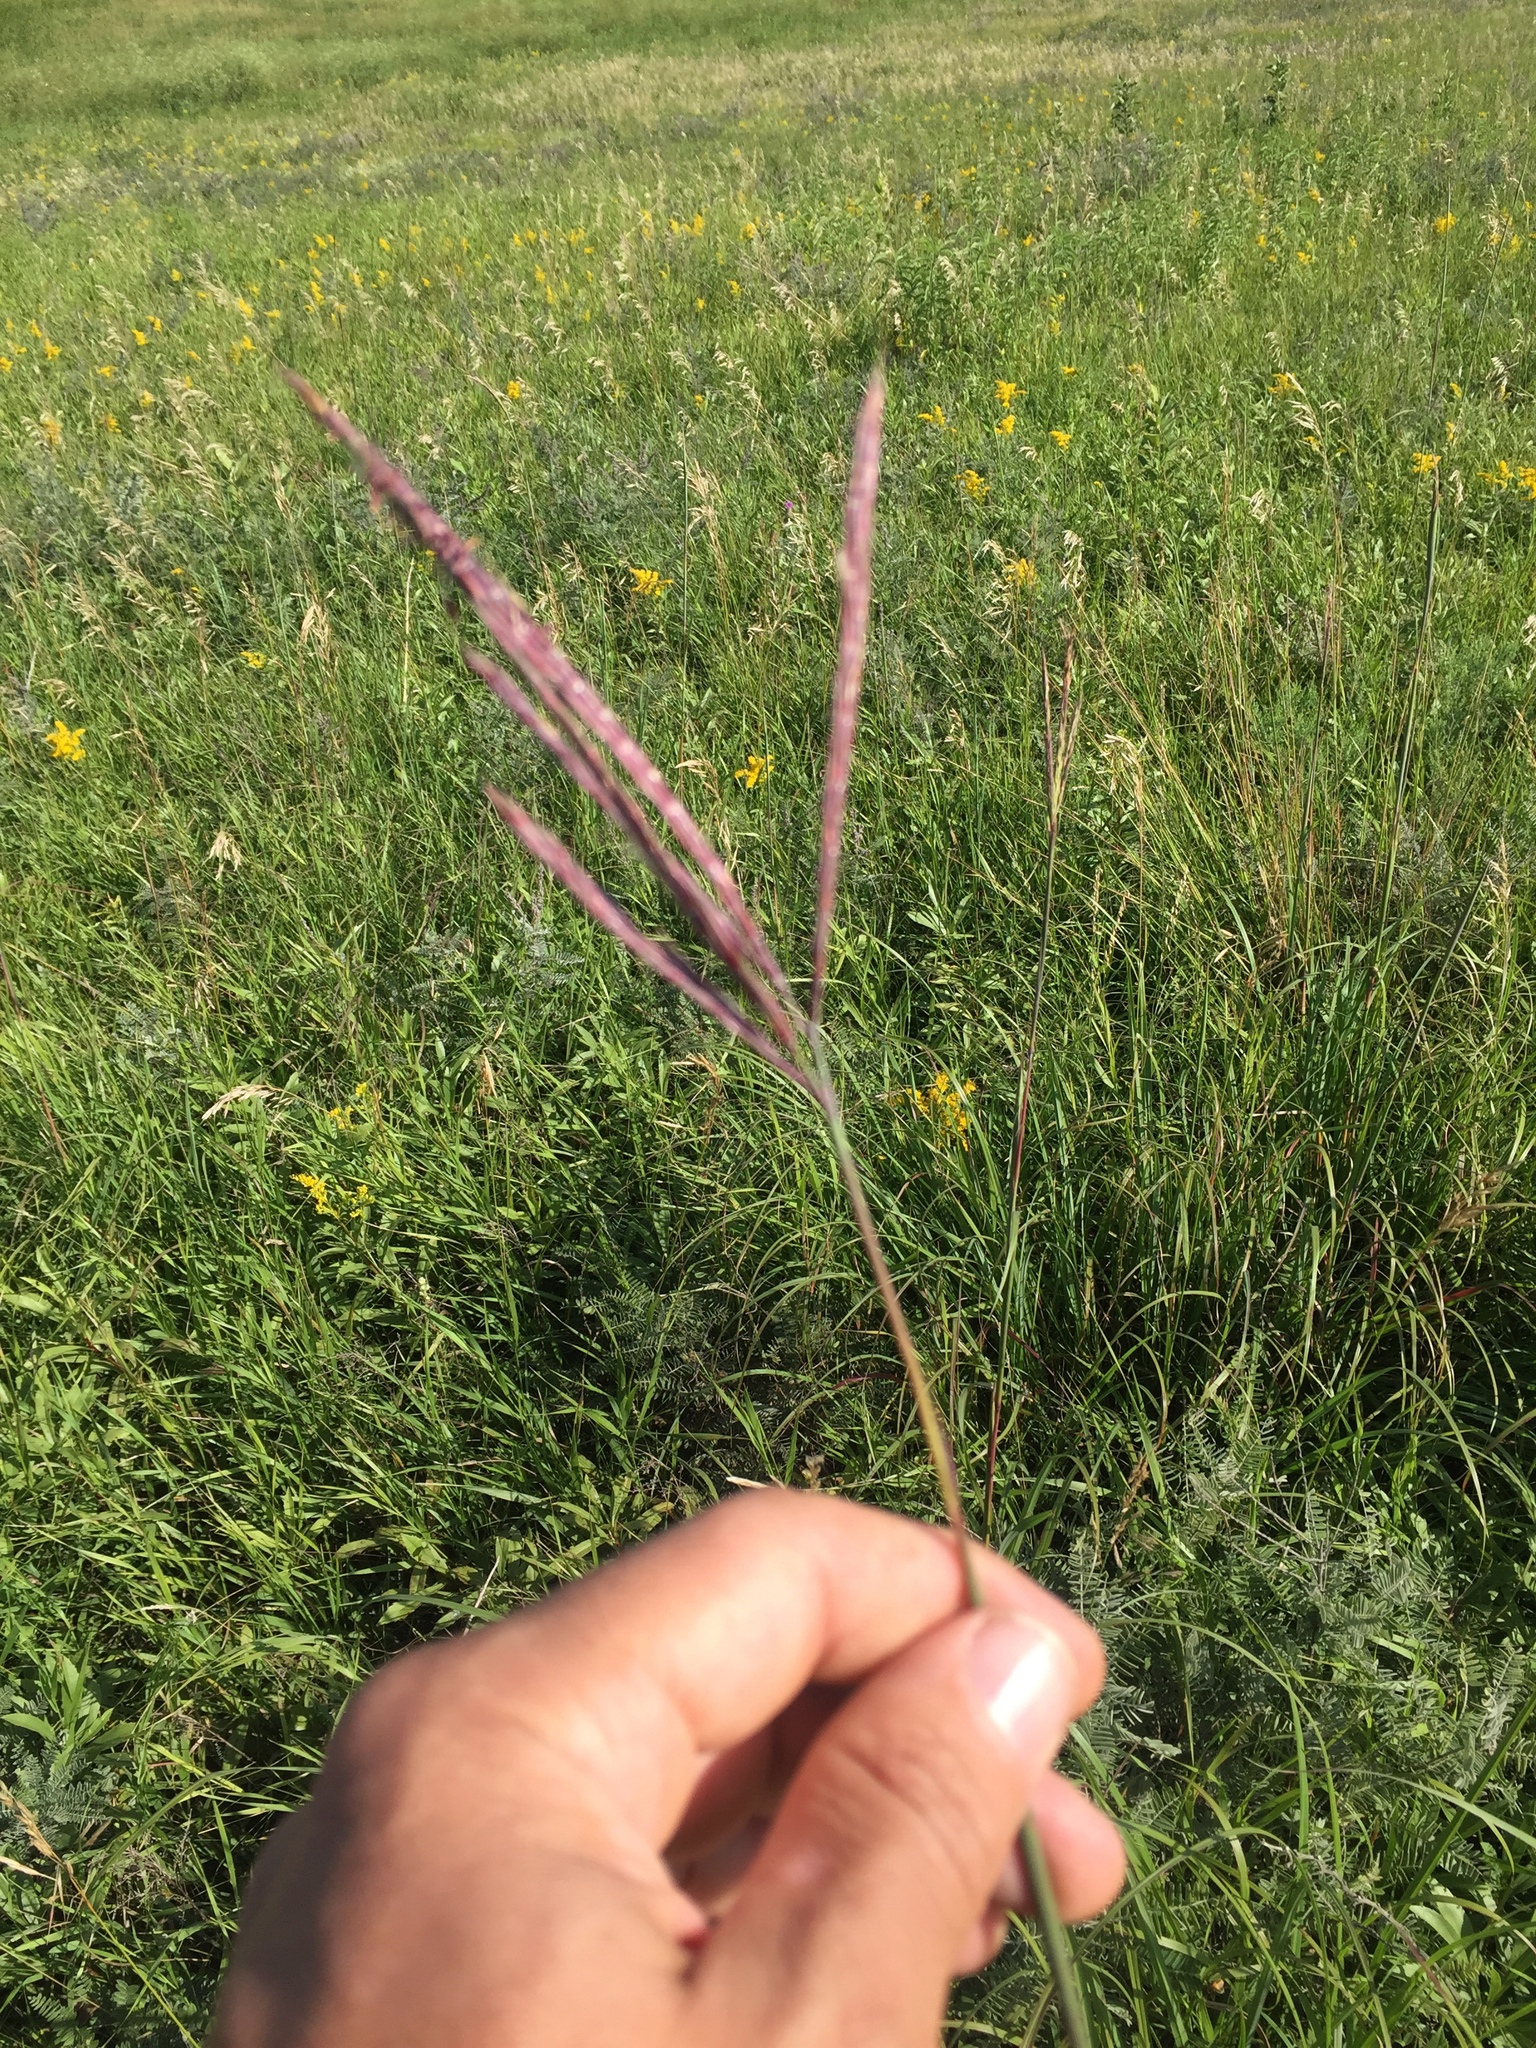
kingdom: Plantae
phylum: Tracheophyta
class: Liliopsida
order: Poales
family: Poaceae
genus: Andropogon
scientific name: Andropogon gerardi
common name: Big bluestem
